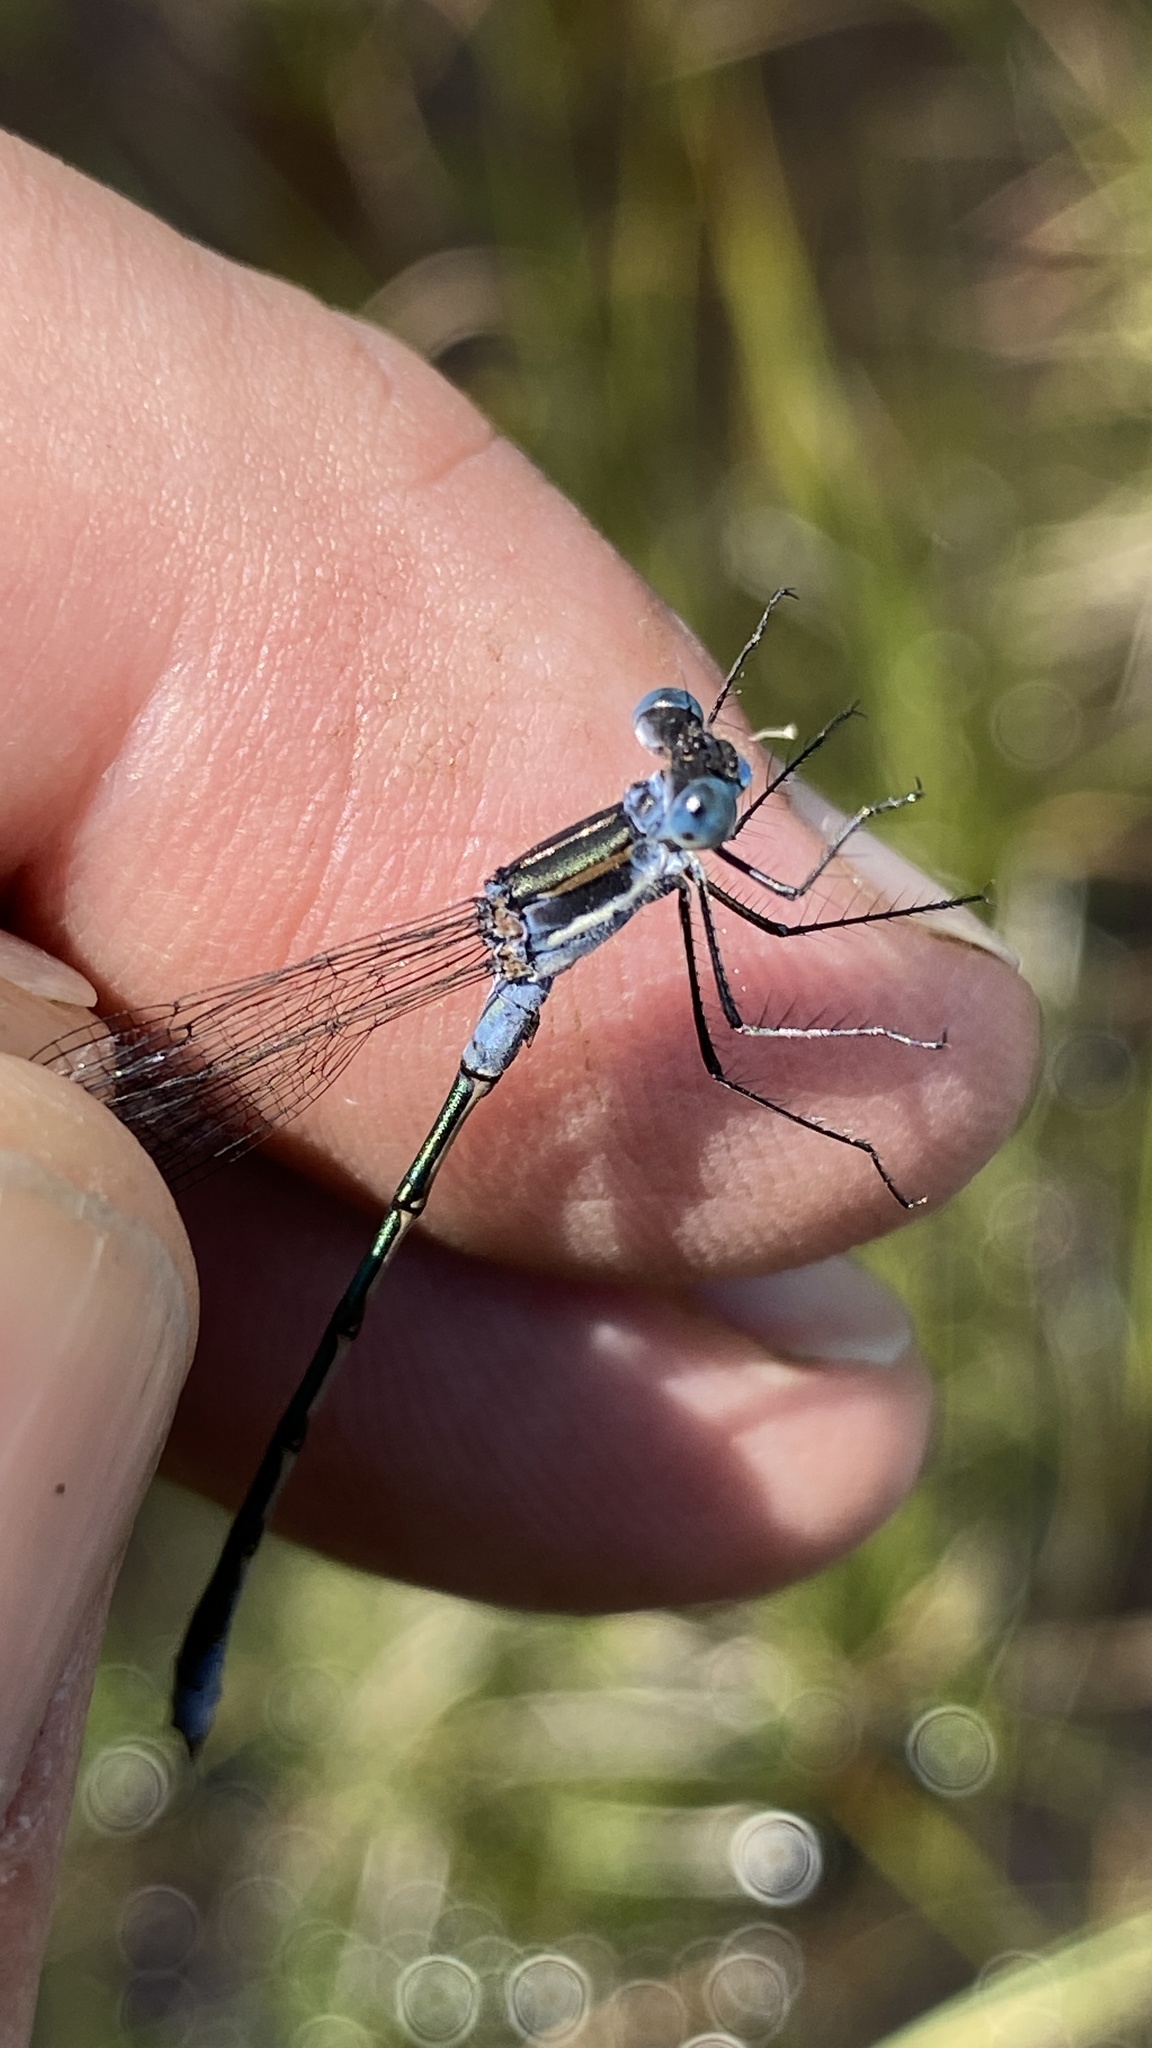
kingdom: Animalia
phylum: Arthropoda
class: Insecta
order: Odonata
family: Lestidae
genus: Lestes
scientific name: Lestes disjunctus
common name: Northern spreadwing
